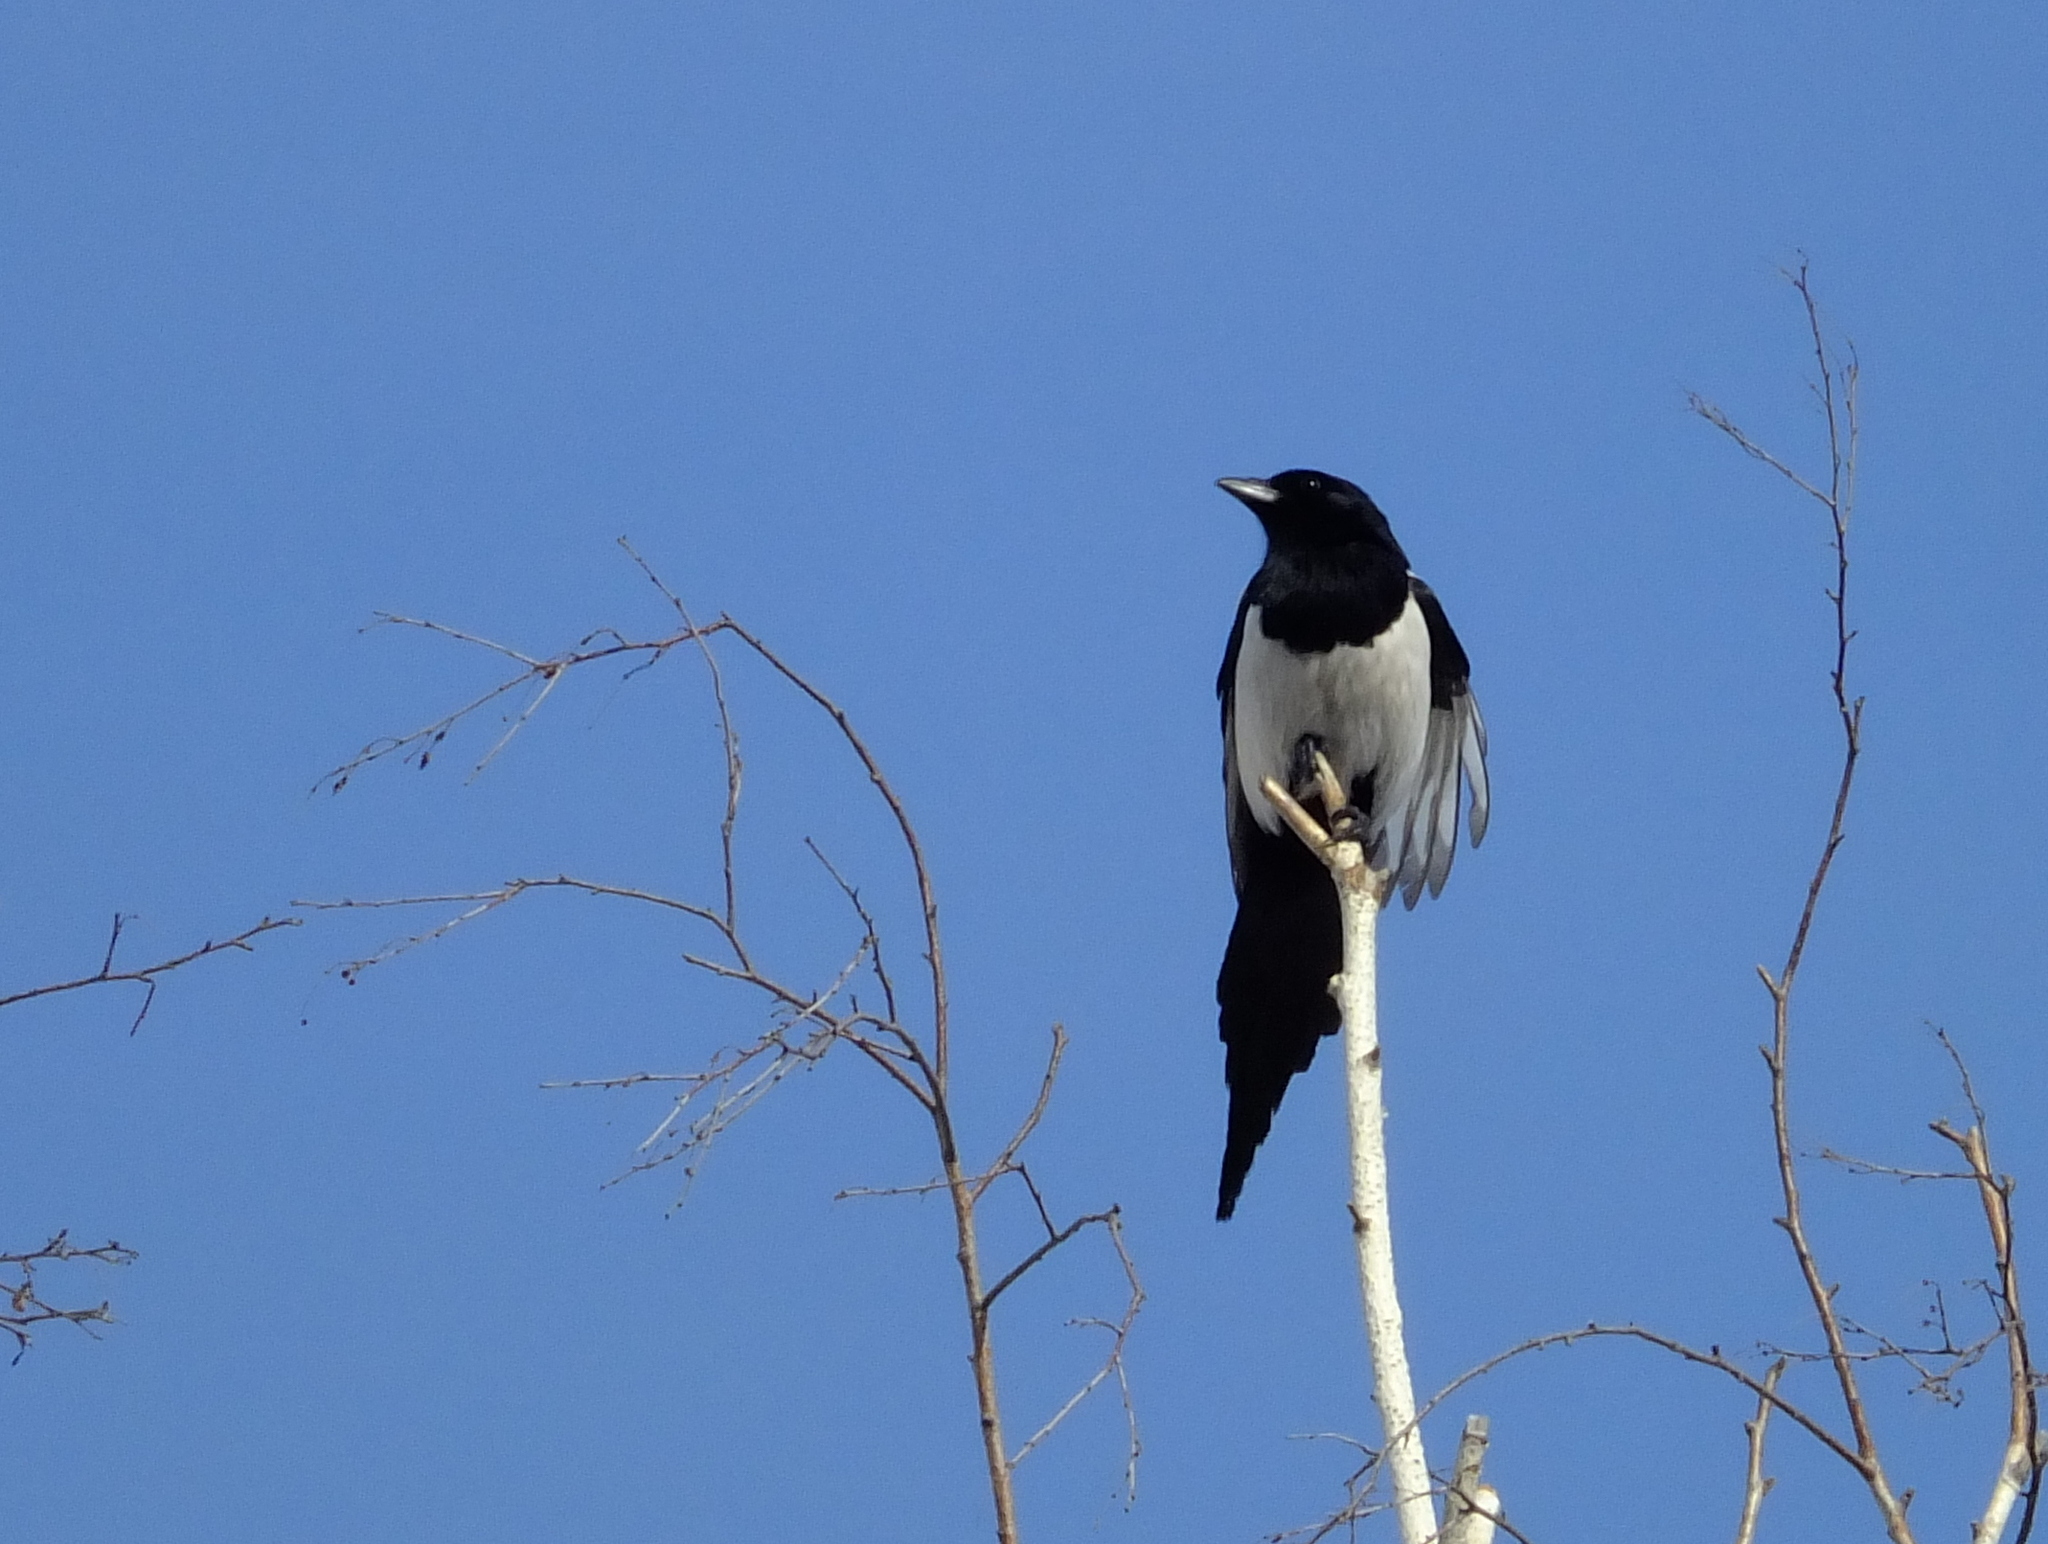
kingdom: Animalia
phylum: Chordata
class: Aves
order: Passeriformes
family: Corvidae
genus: Pica
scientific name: Pica pica
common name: Eurasian magpie
